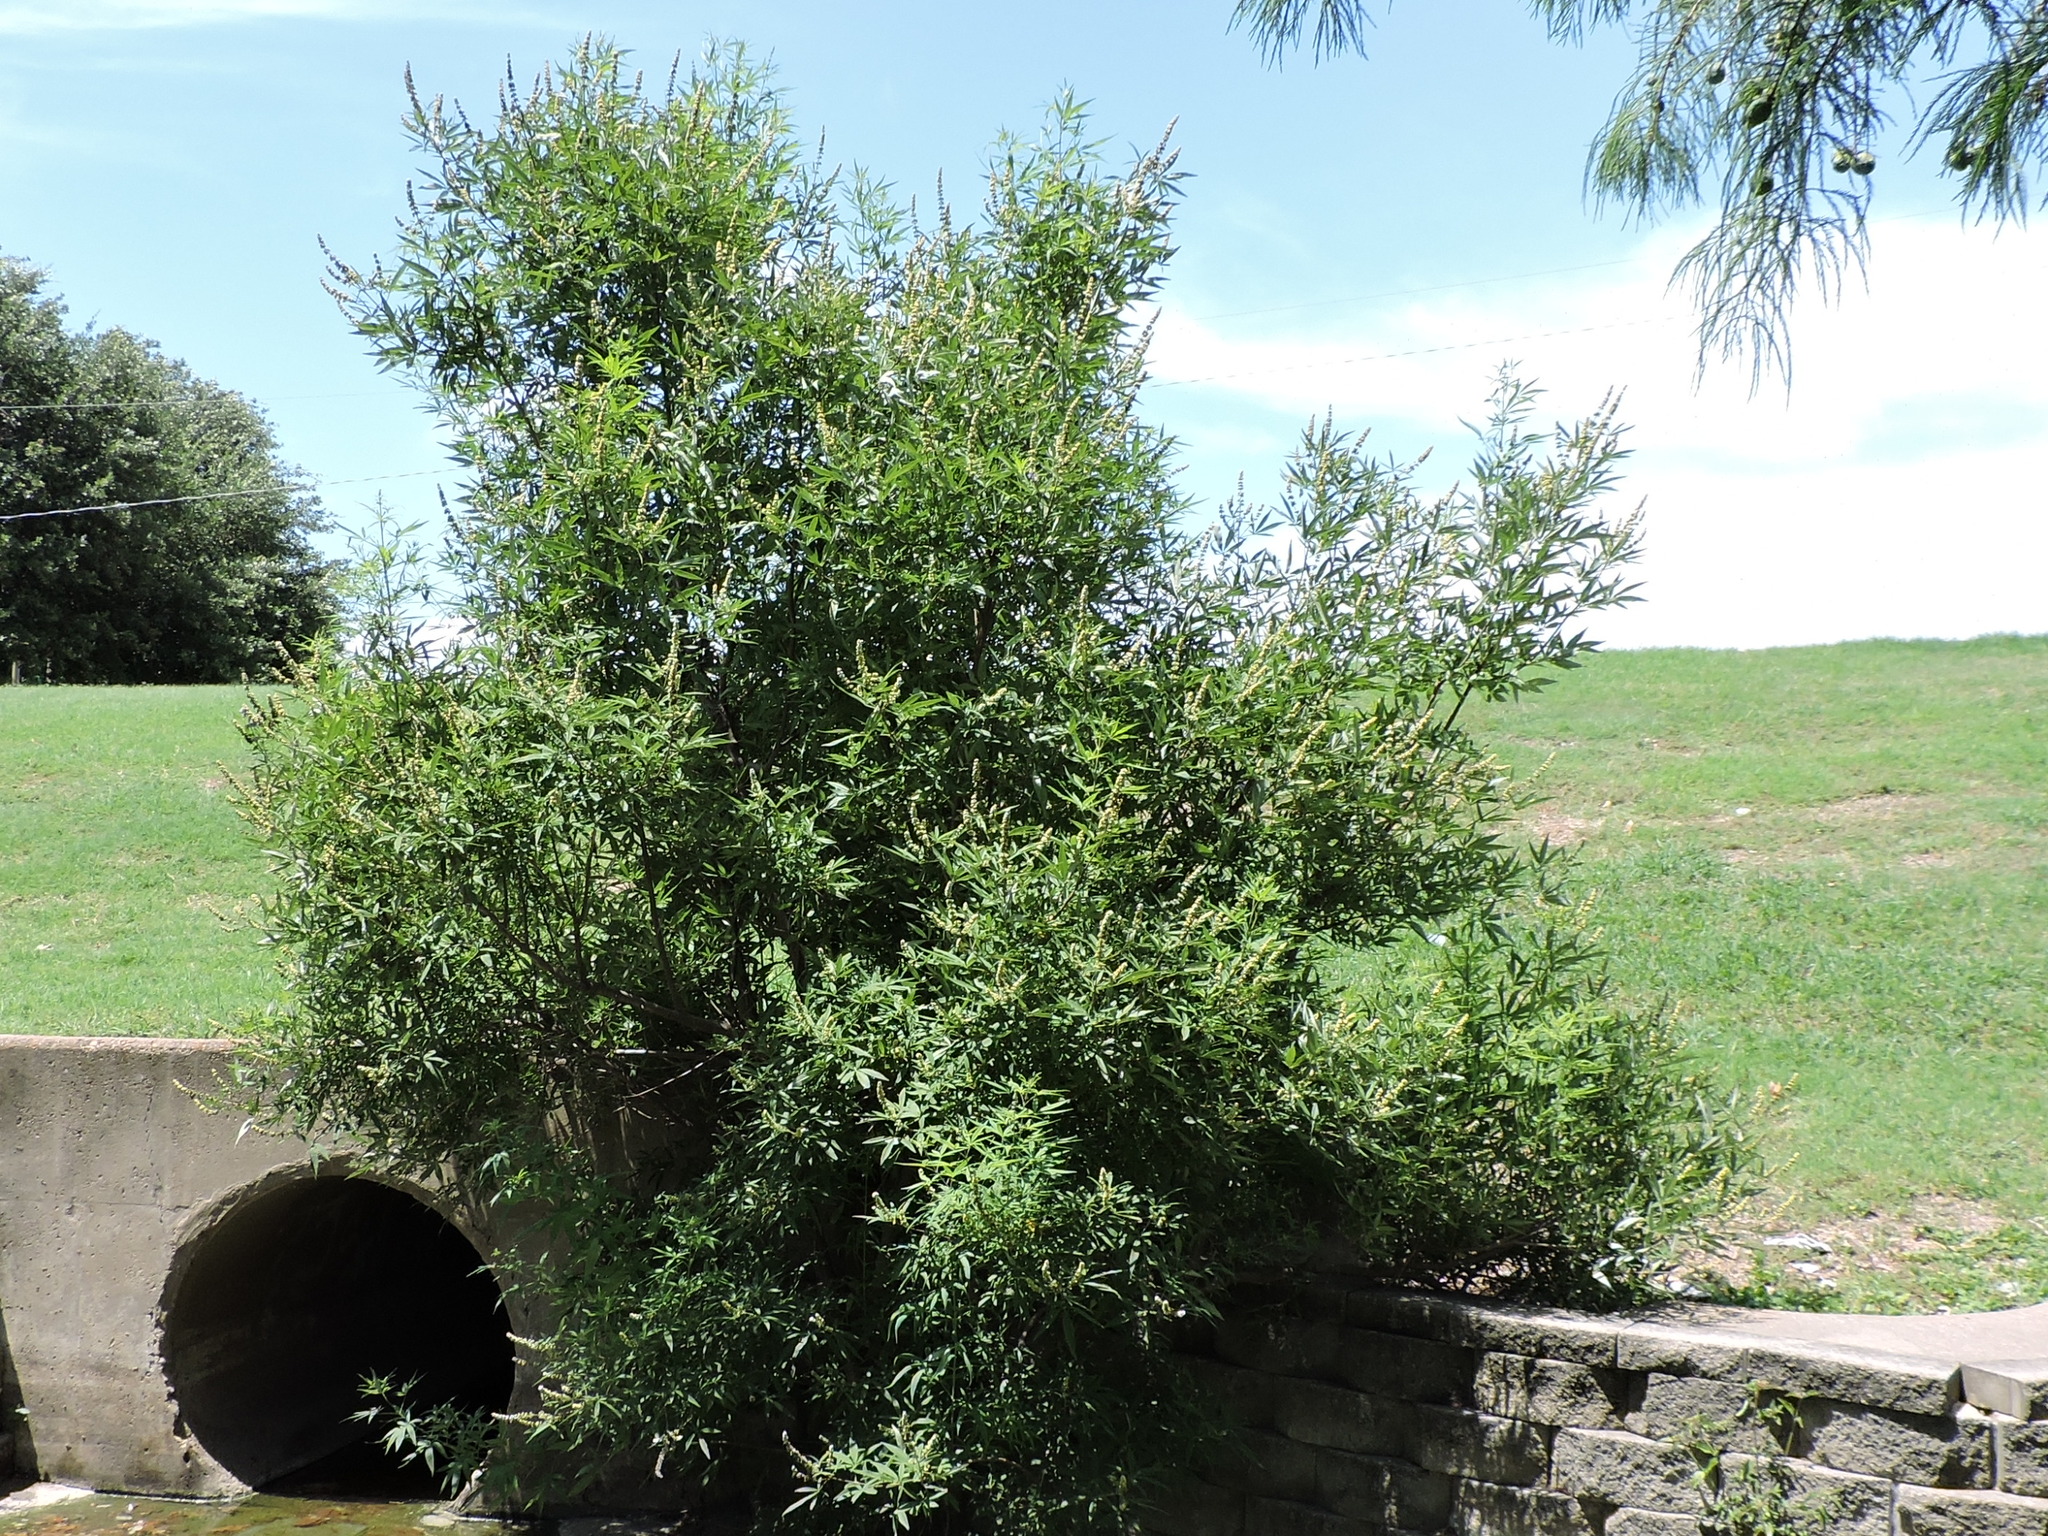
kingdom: Plantae
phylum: Tracheophyta
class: Magnoliopsida
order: Lamiales
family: Lamiaceae
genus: Vitex
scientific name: Vitex agnus-castus
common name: Chasteberry
